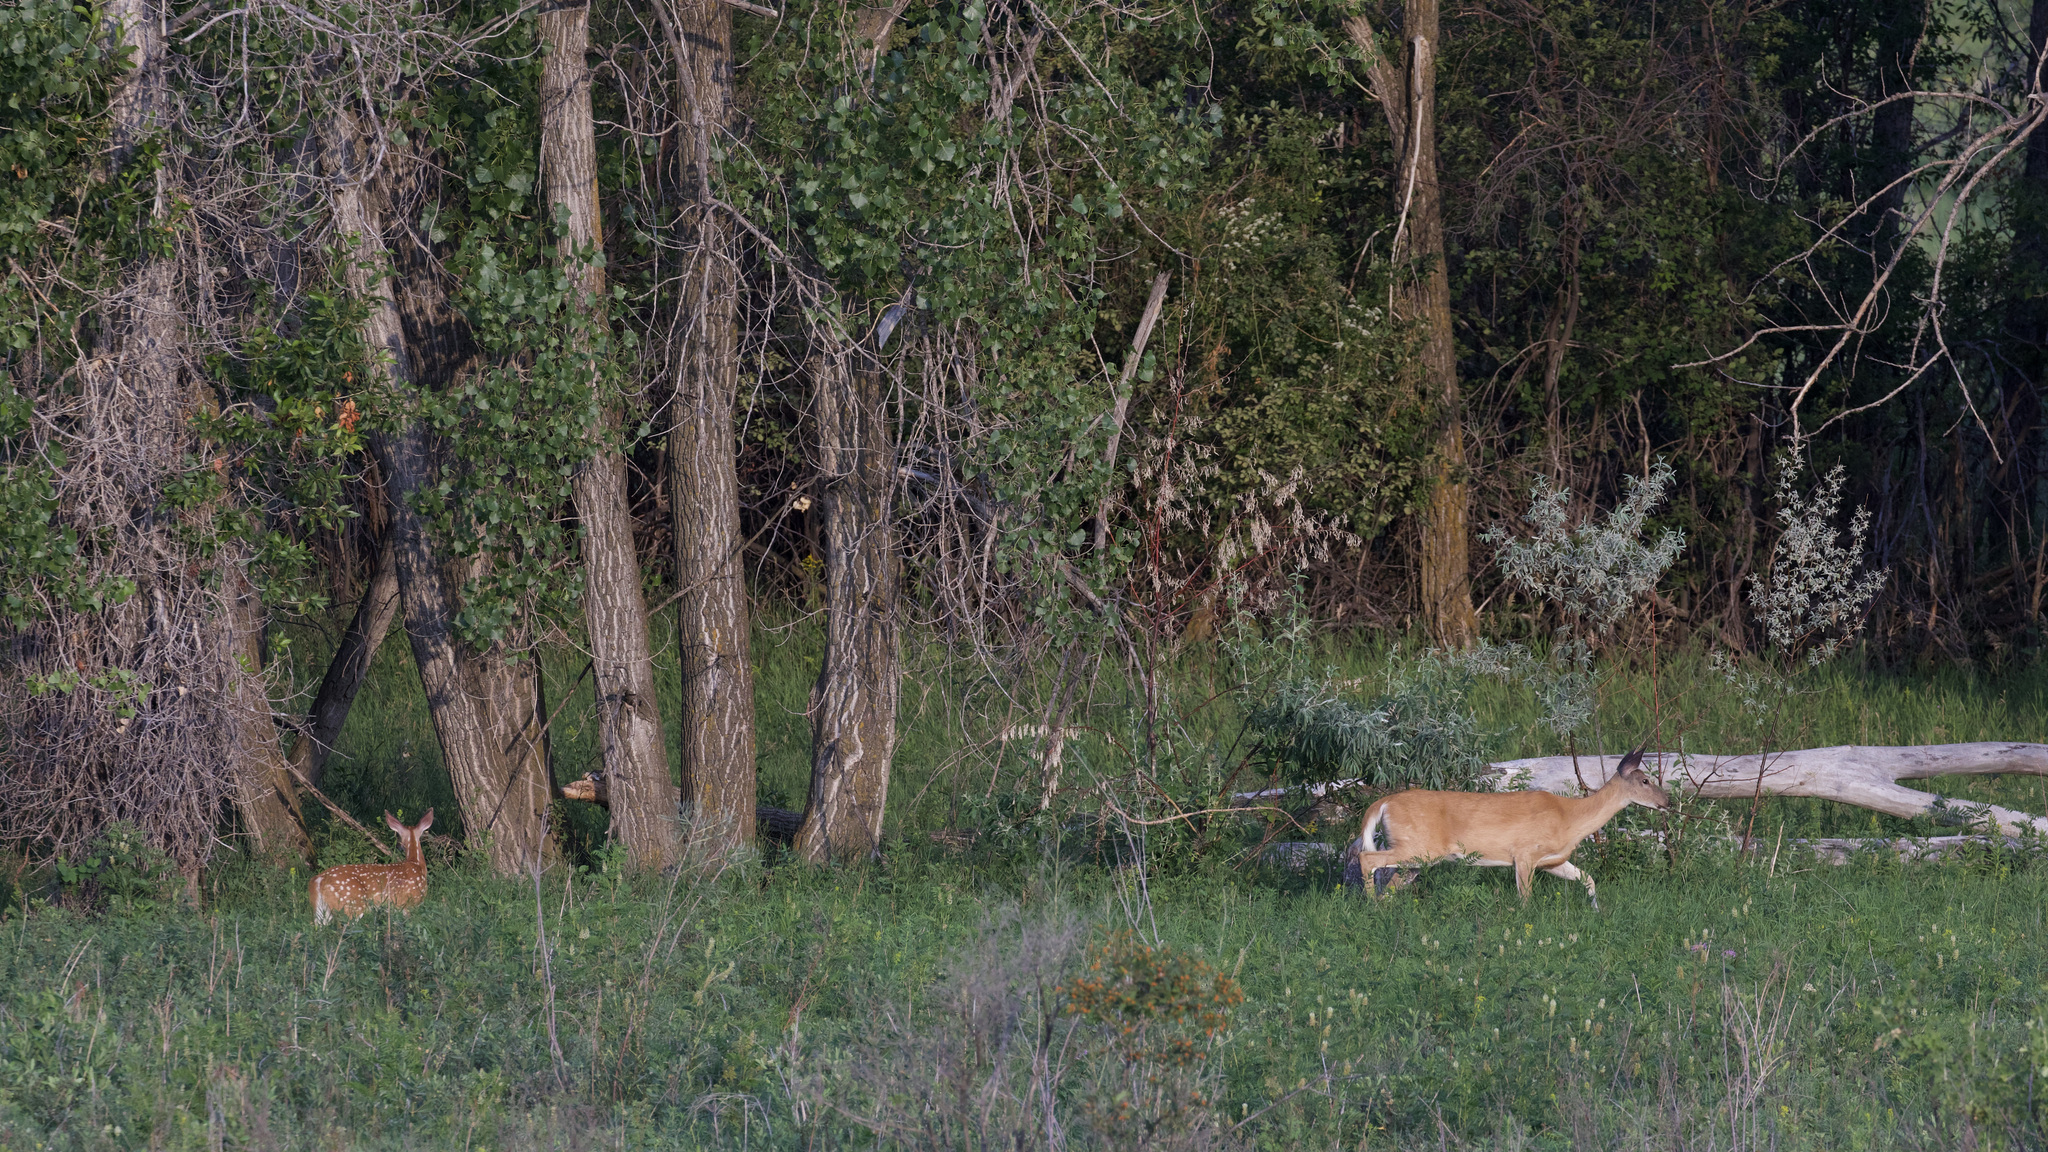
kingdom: Animalia
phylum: Chordata
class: Mammalia
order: Artiodactyla
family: Cervidae
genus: Odocoileus
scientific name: Odocoileus virginianus
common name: White-tailed deer
